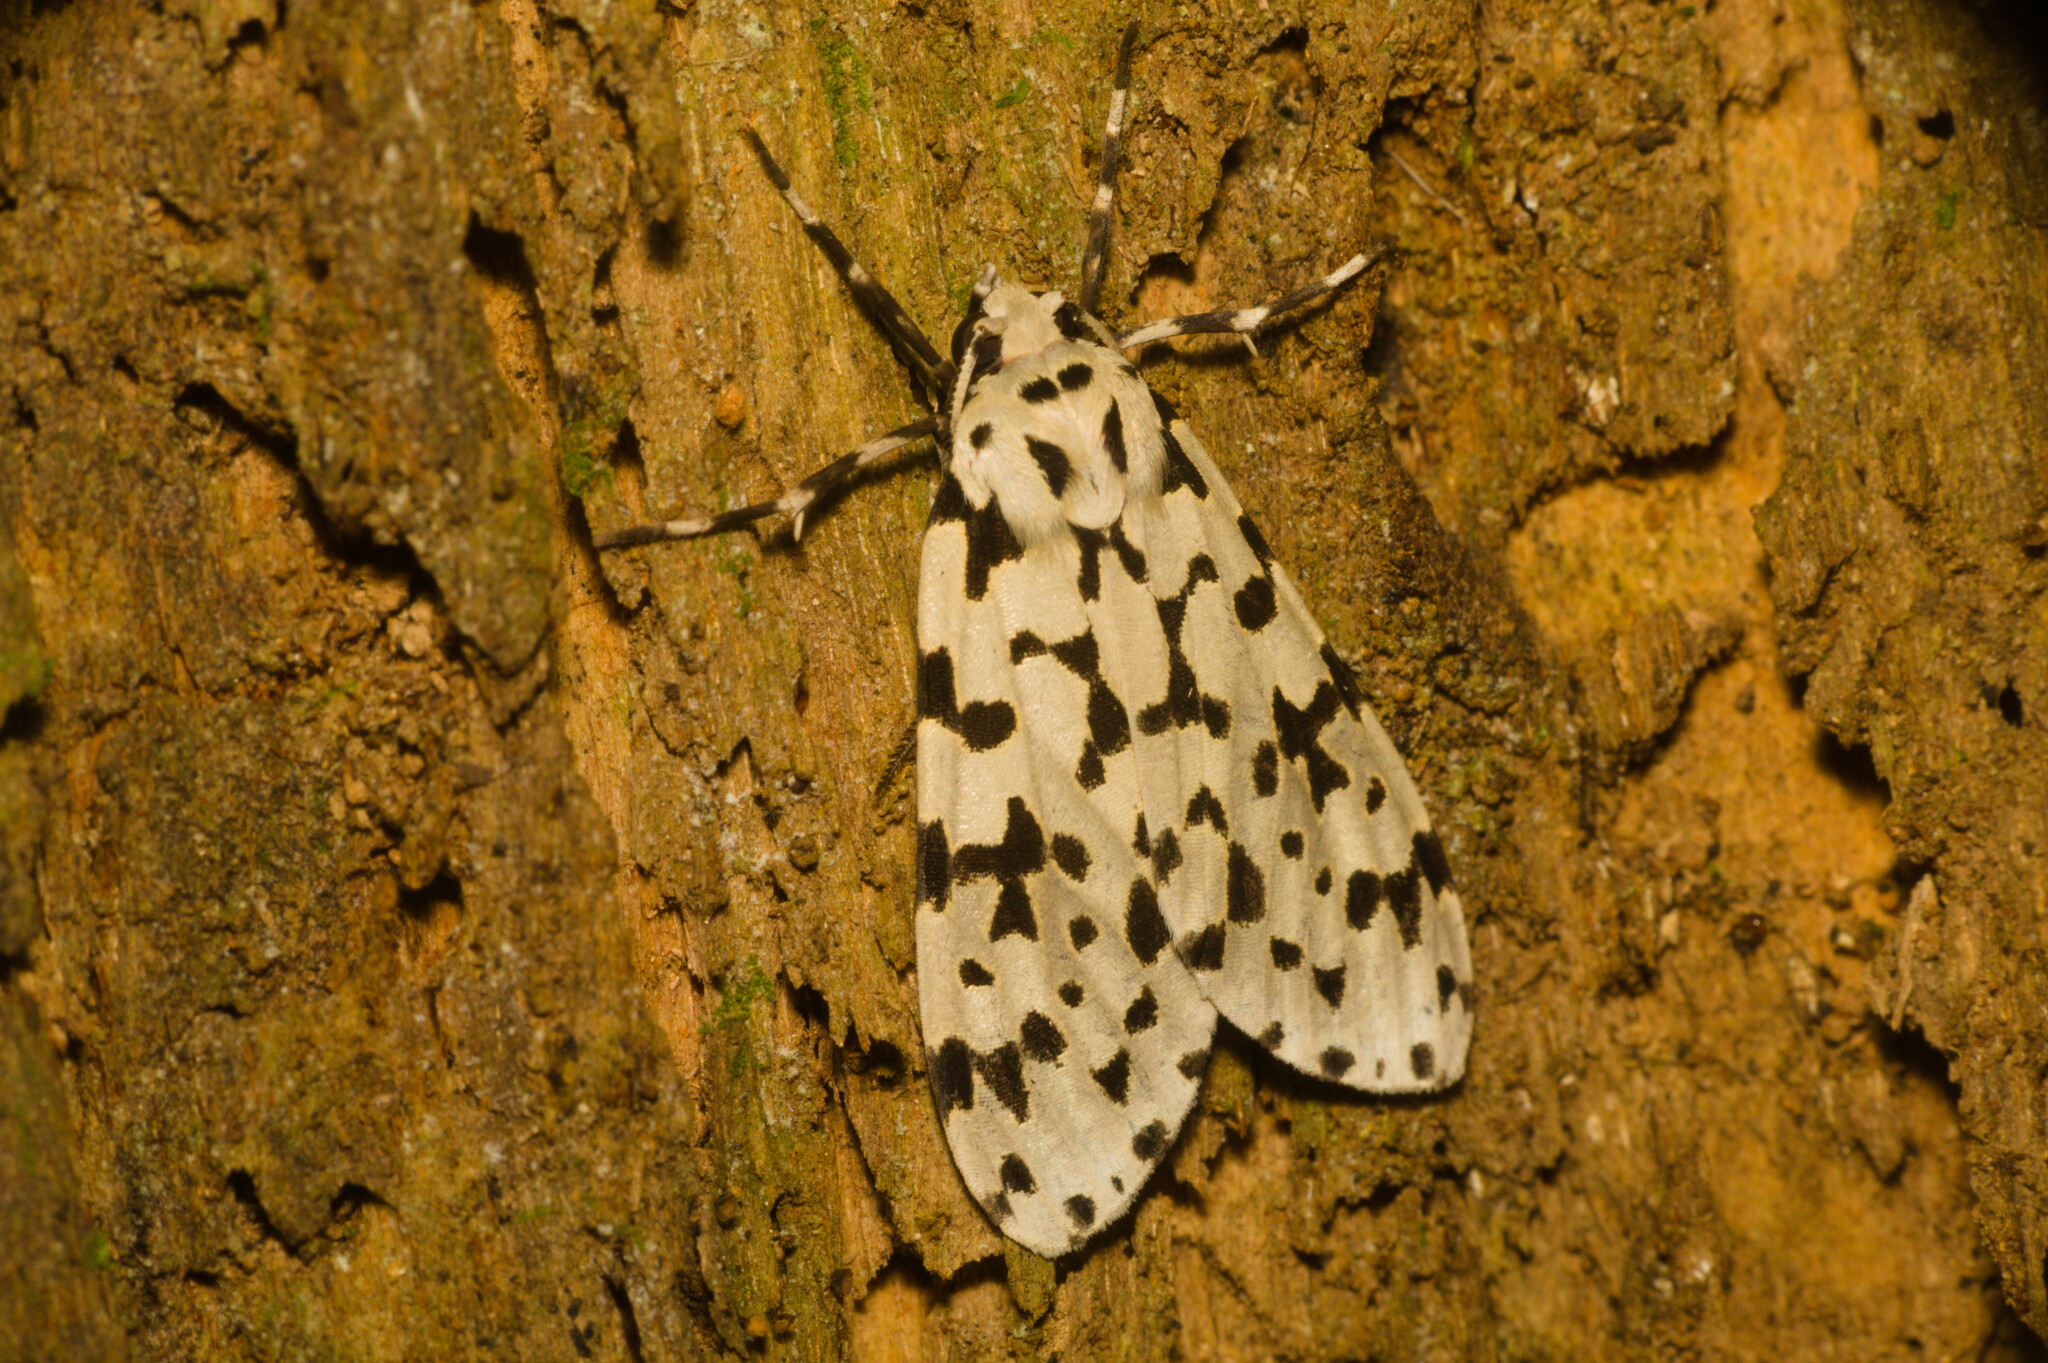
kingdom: Animalia
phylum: Arthropoda
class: Insecta
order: Lepidoptera
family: Erebidae
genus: Eucereon
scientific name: Eucereon punctata
